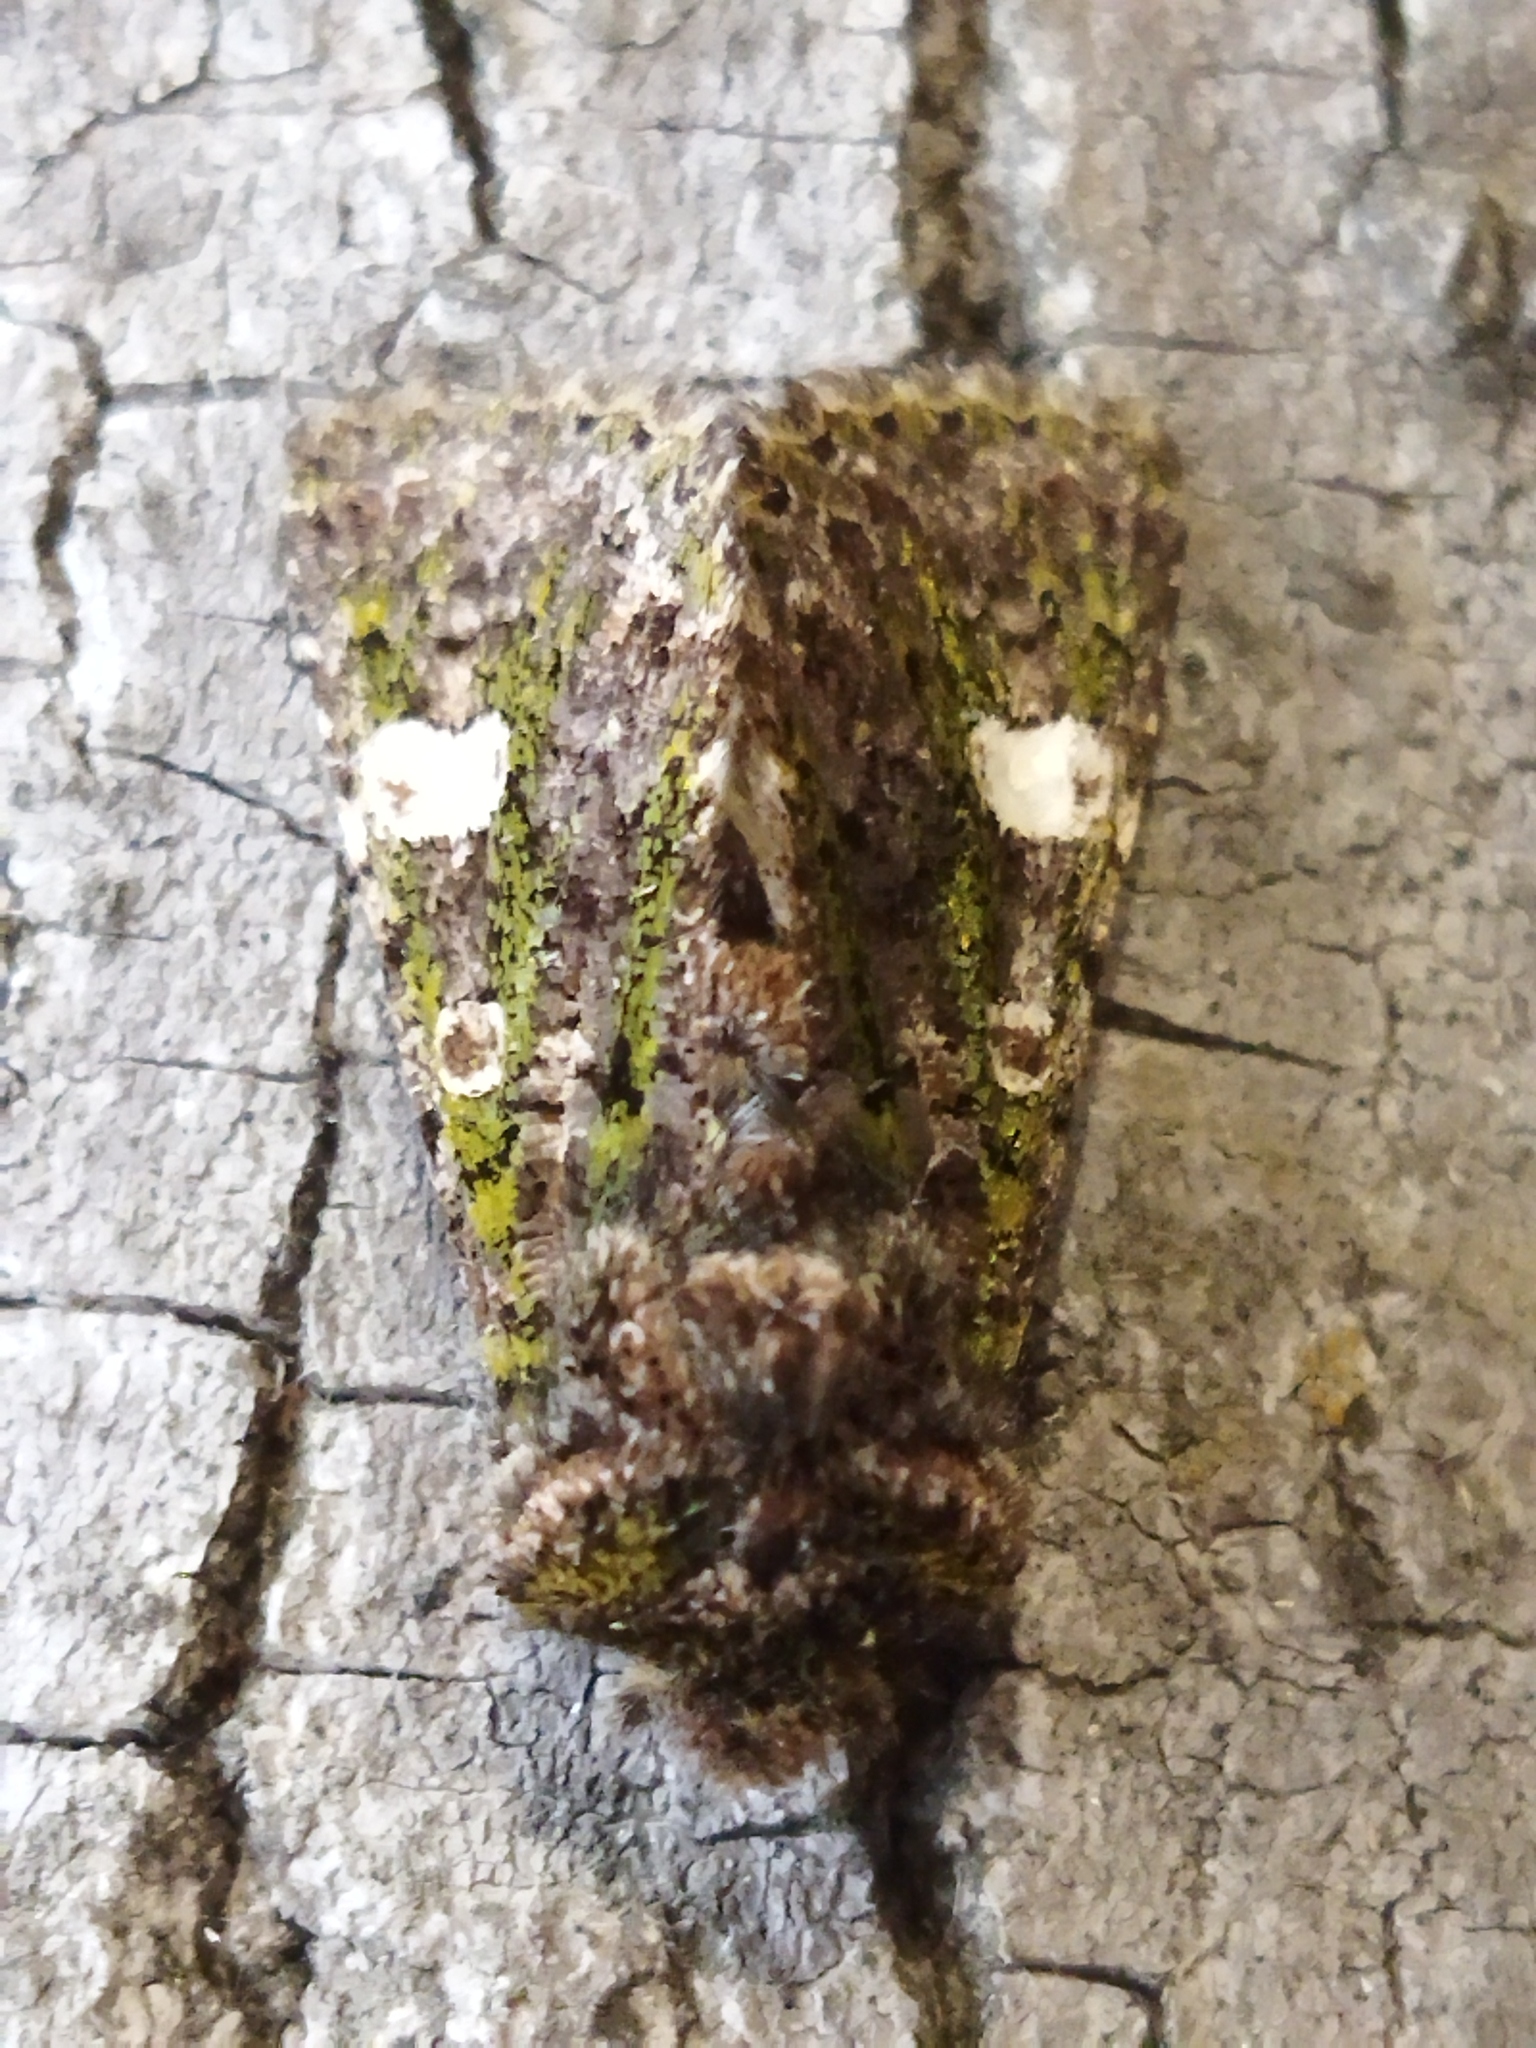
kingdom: Animalia
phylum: Arthropoda
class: Insecta
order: Lepidoptera
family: Noctuidae
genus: Valeria
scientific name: Valeria oleagina
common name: Green-brindled dot
